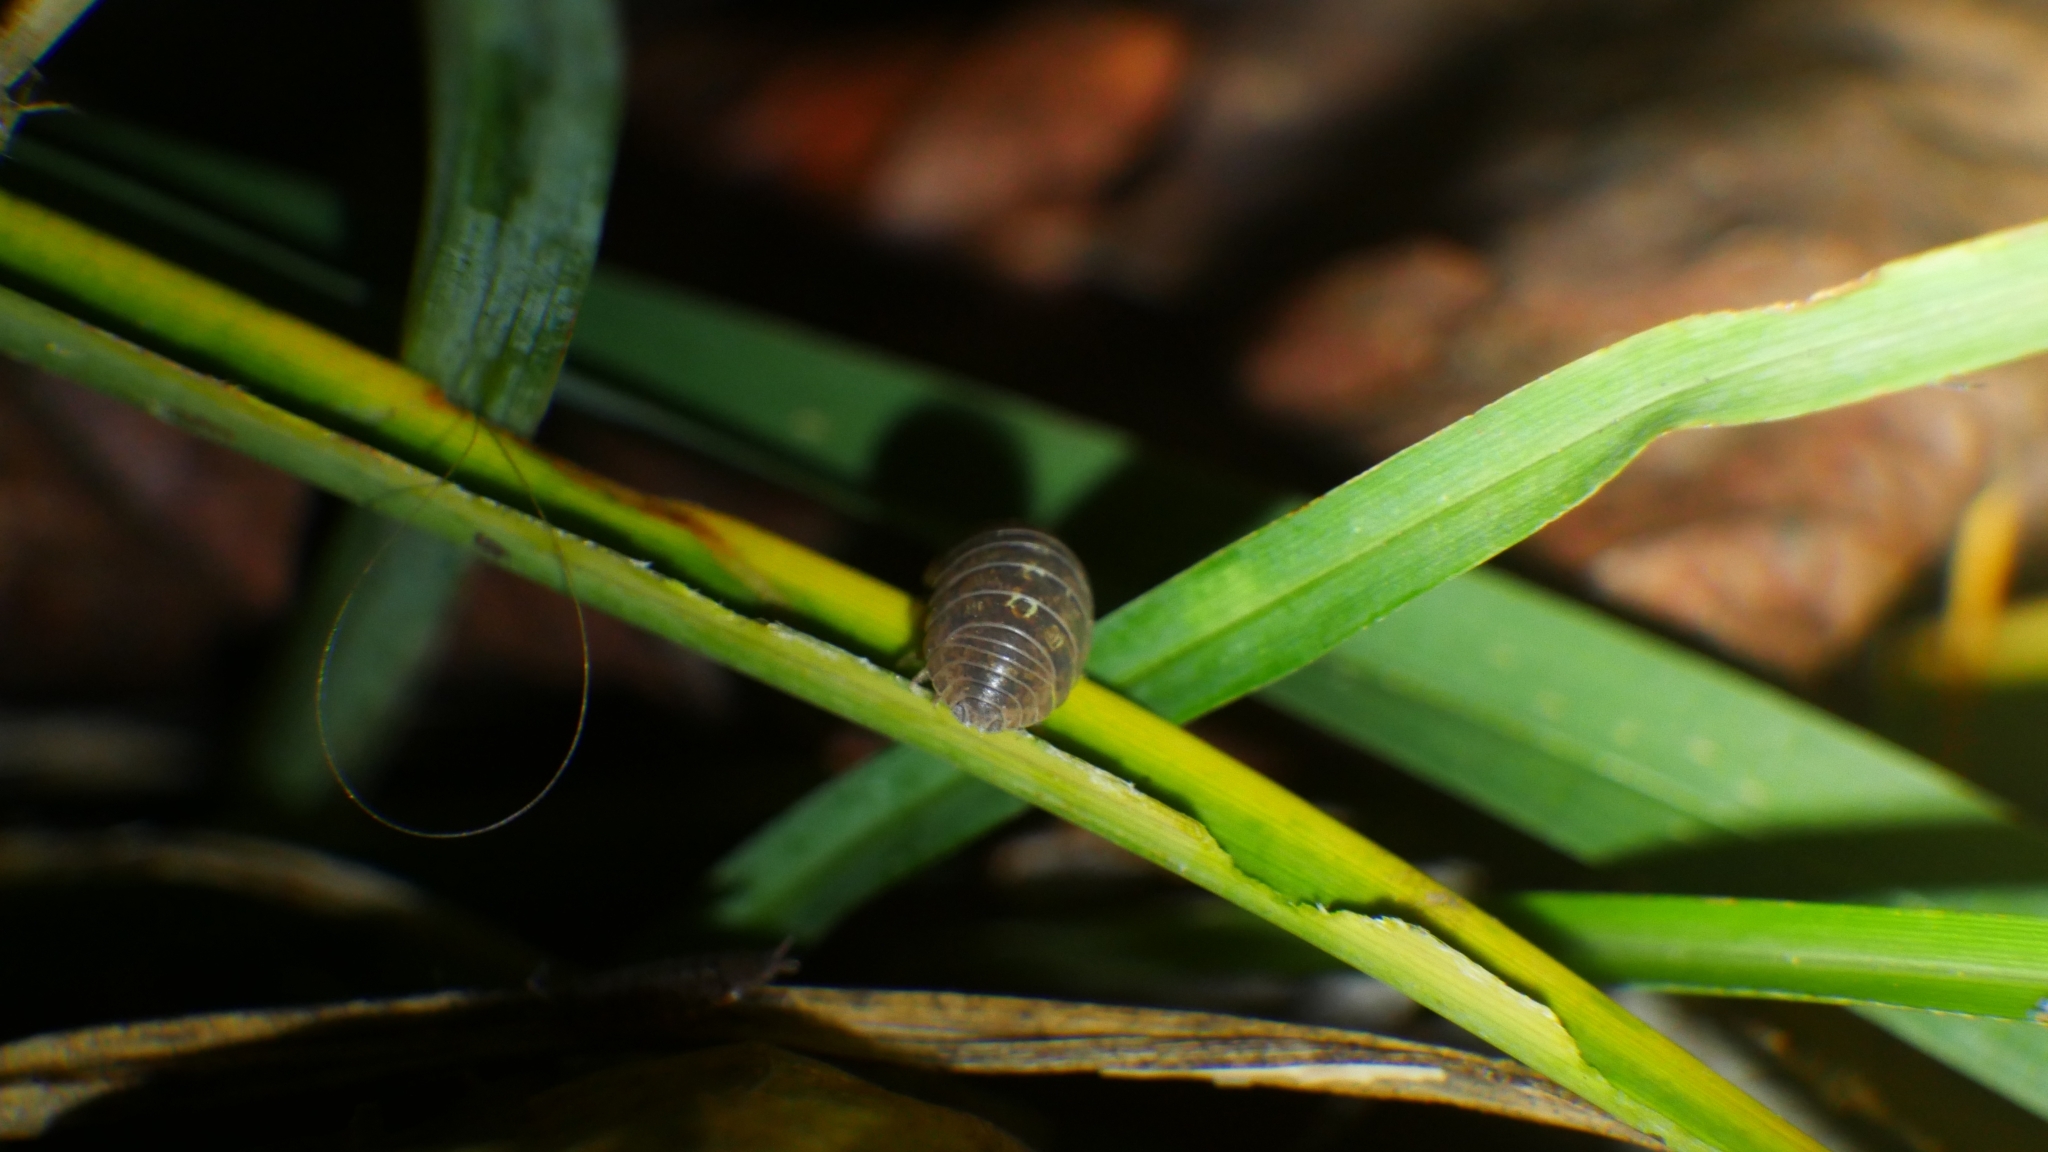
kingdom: Animalia
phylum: Arthropoda
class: Malacostraca
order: Isopoda
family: Armadillidiidae
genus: Armadillidium
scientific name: Armadillidium vulgare
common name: Common pill woodlouse
